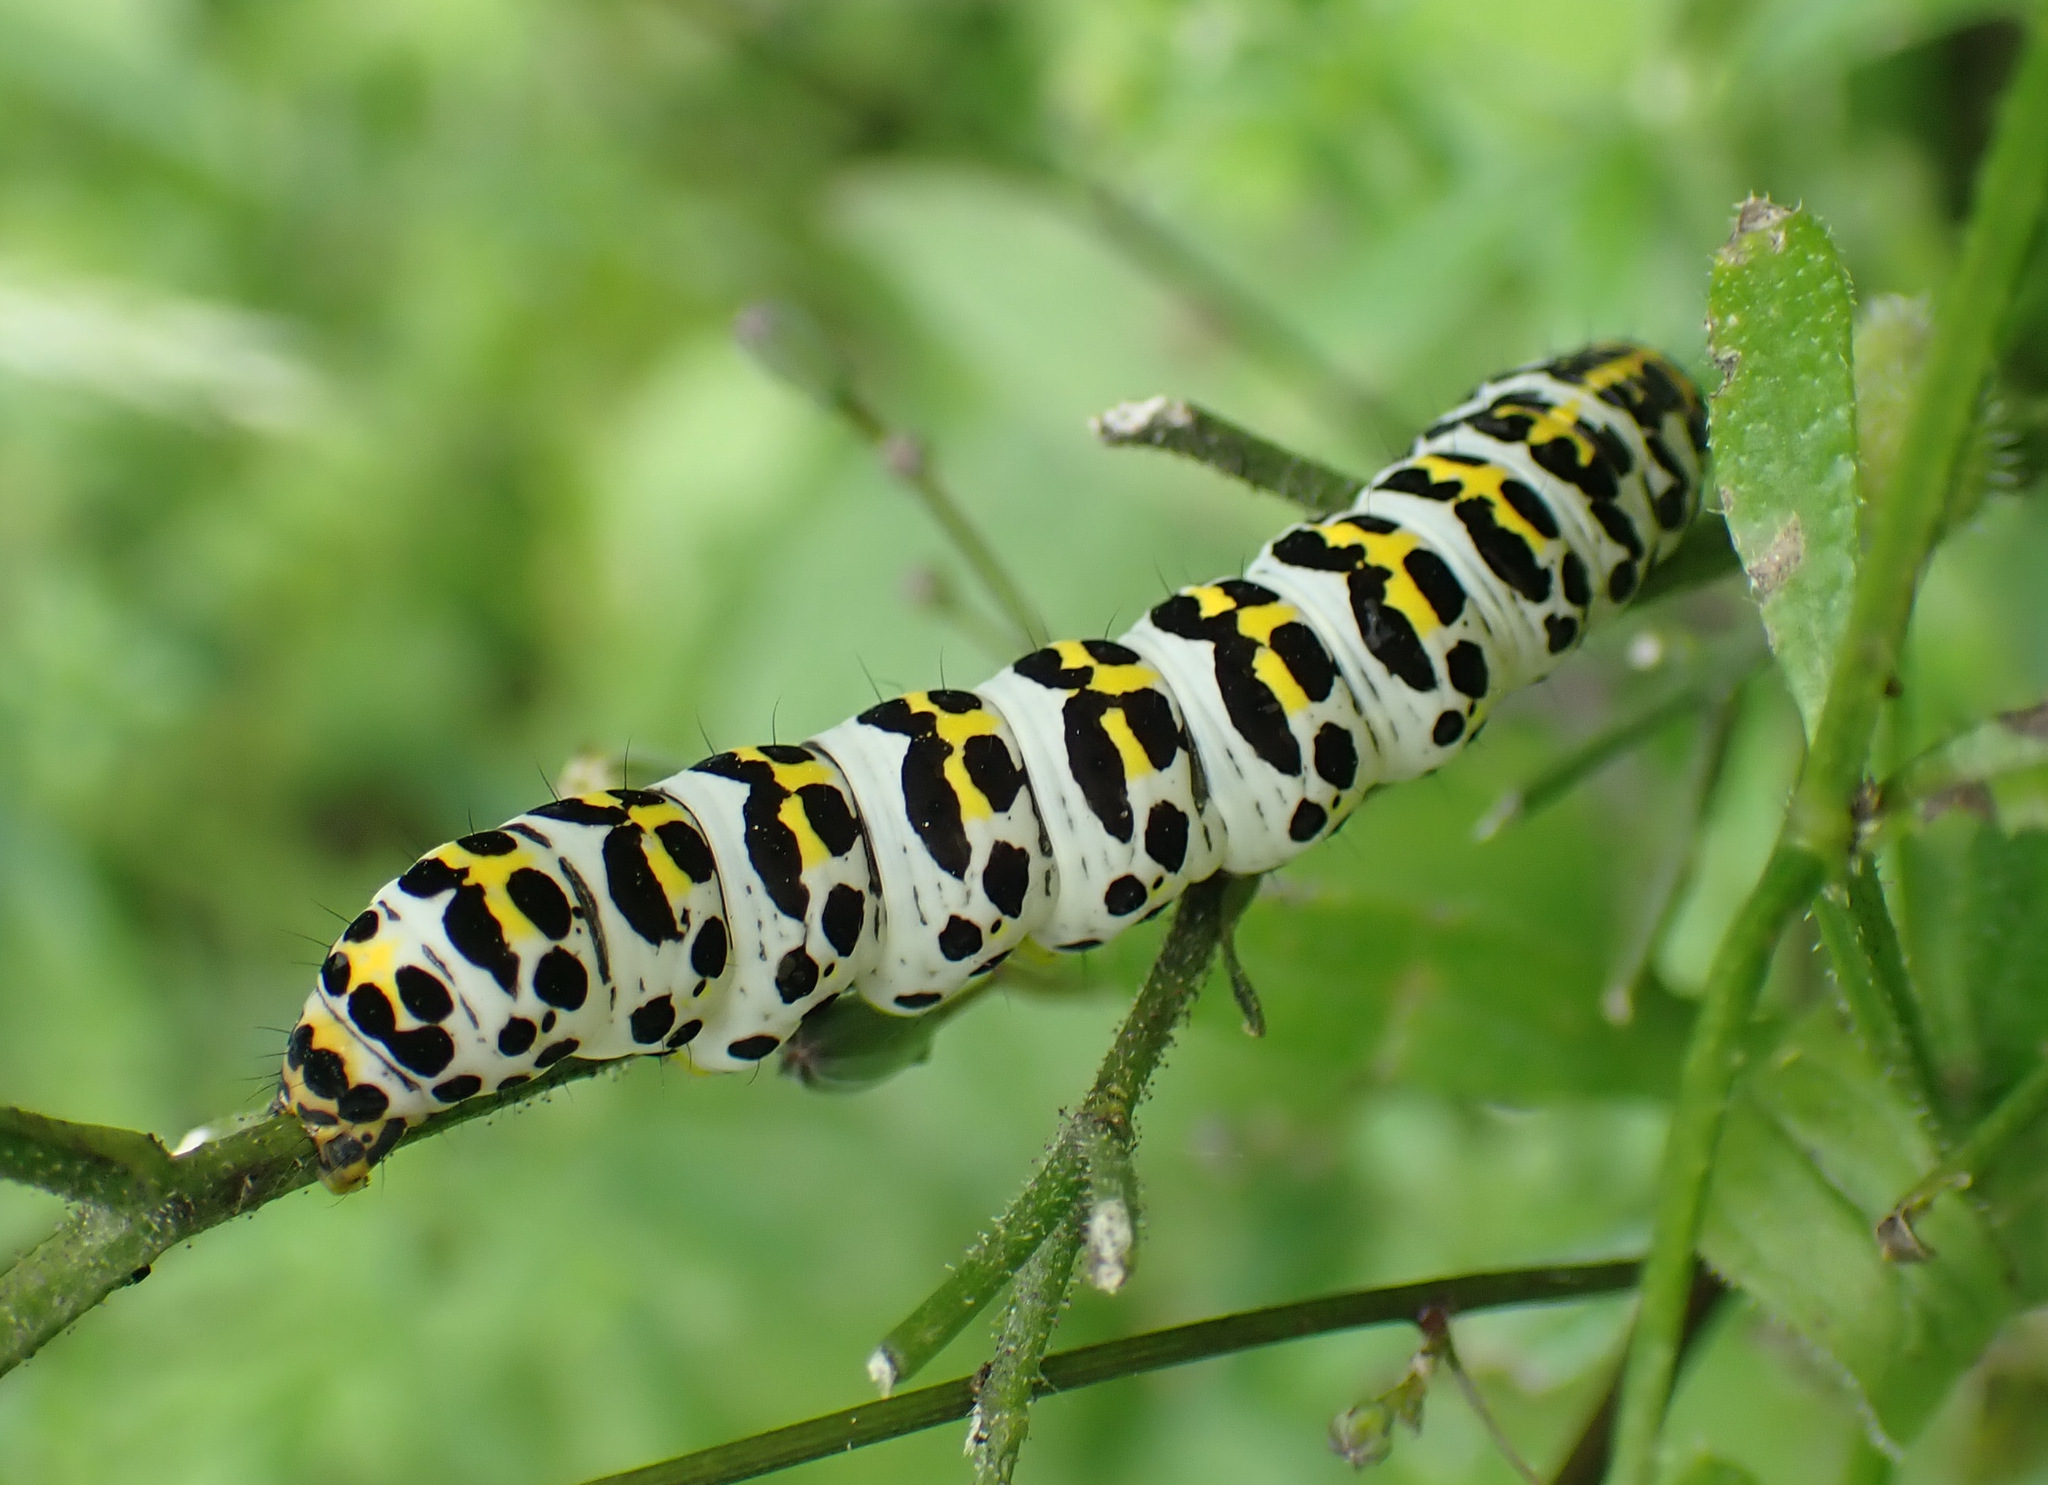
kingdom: Animalia
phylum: Arthropoda
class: Insecta
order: Lepidoptera
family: Noctuidae
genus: Shargacucullia
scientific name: Shargacucullia scrophulariae
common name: Water betony
